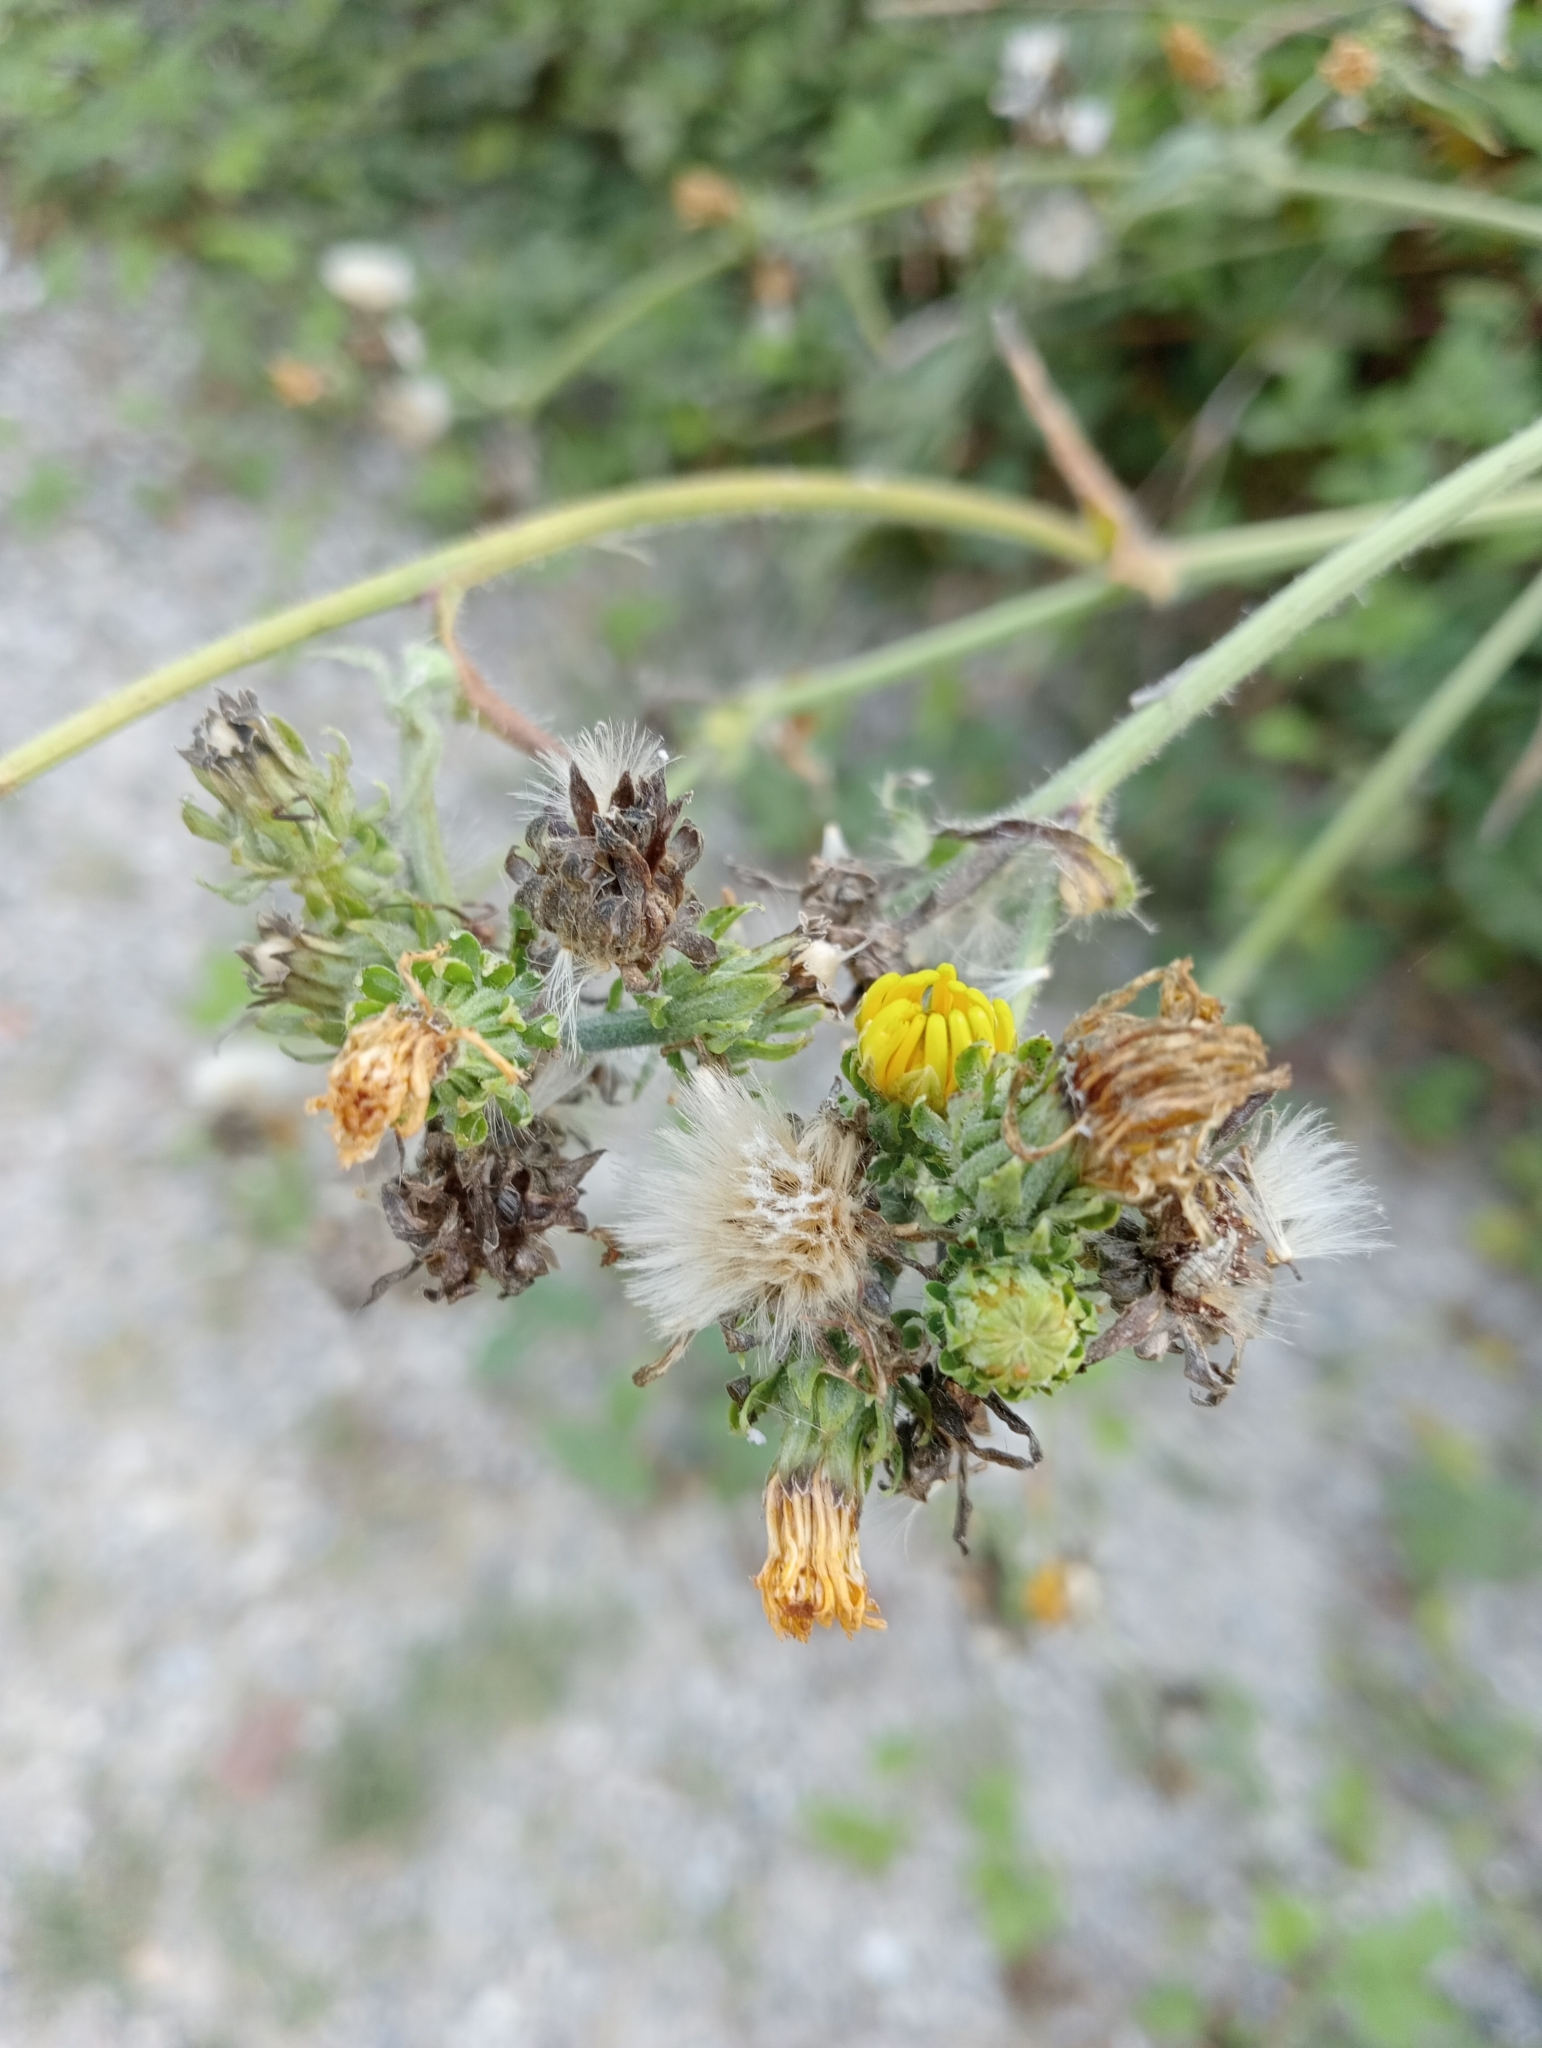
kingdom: Plantae
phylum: Tracheophyta
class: Magnoliopsida
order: Asterales
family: Asteraceae
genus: Picris
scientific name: Picris hieracioides
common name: Hawkweed oxtongue
